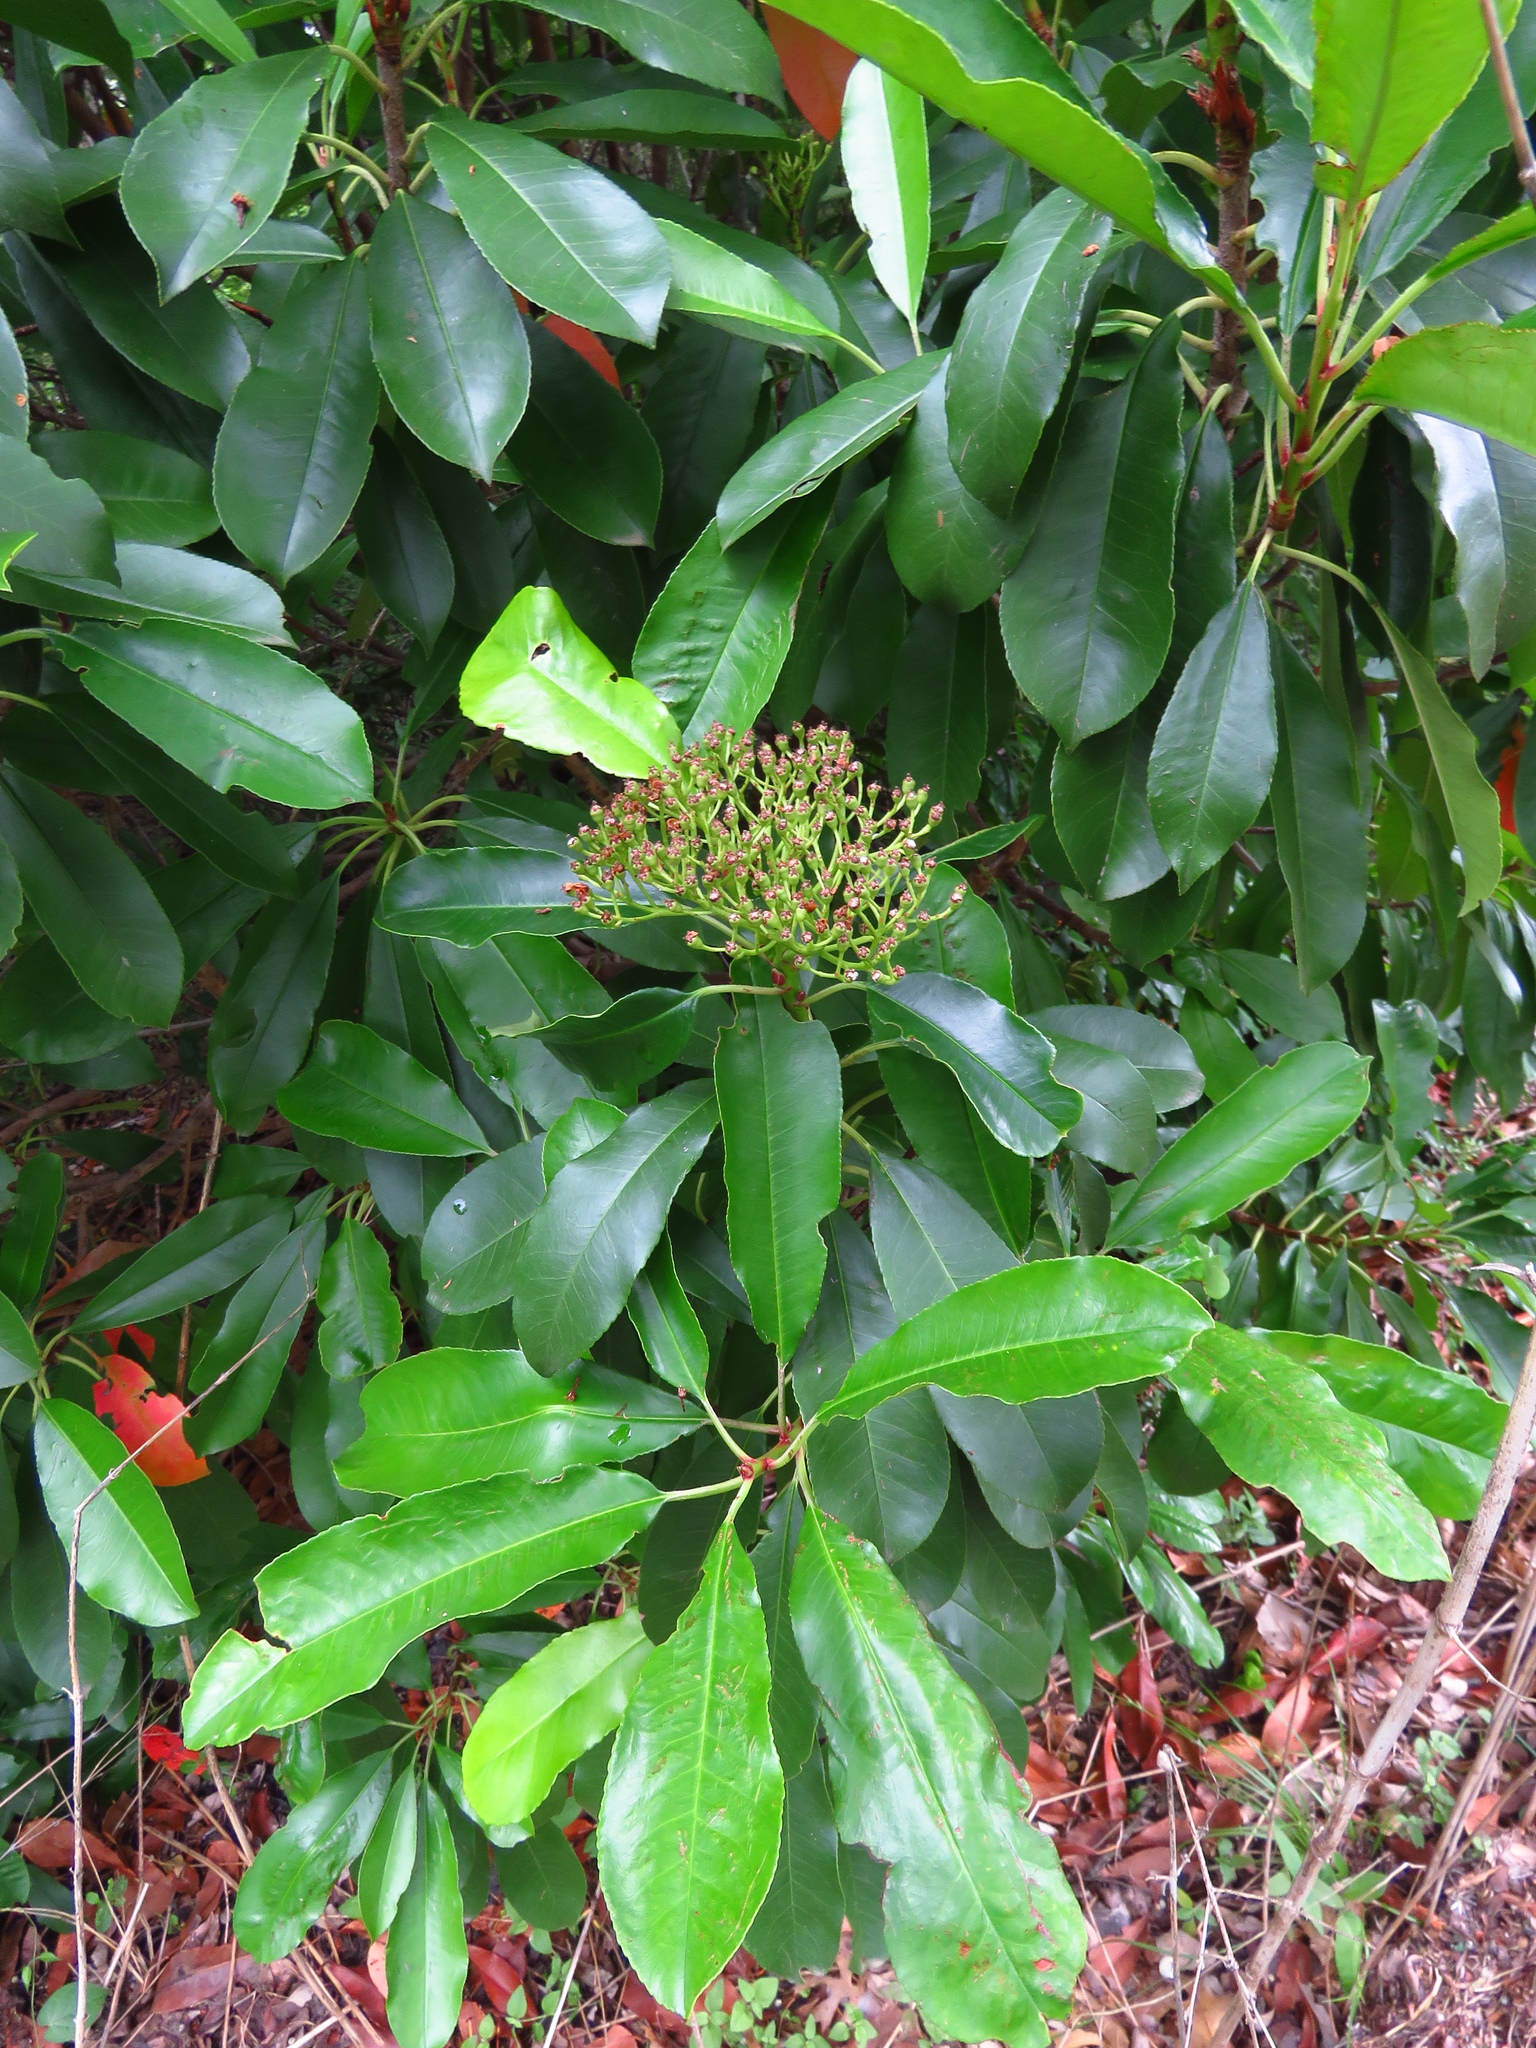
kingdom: Plantae
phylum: Tracheophyta
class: Magnoliopsida
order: Rosales
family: Rosaceae
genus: Photinia
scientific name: Photinia serratifolia
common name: Taiwanese photinia
